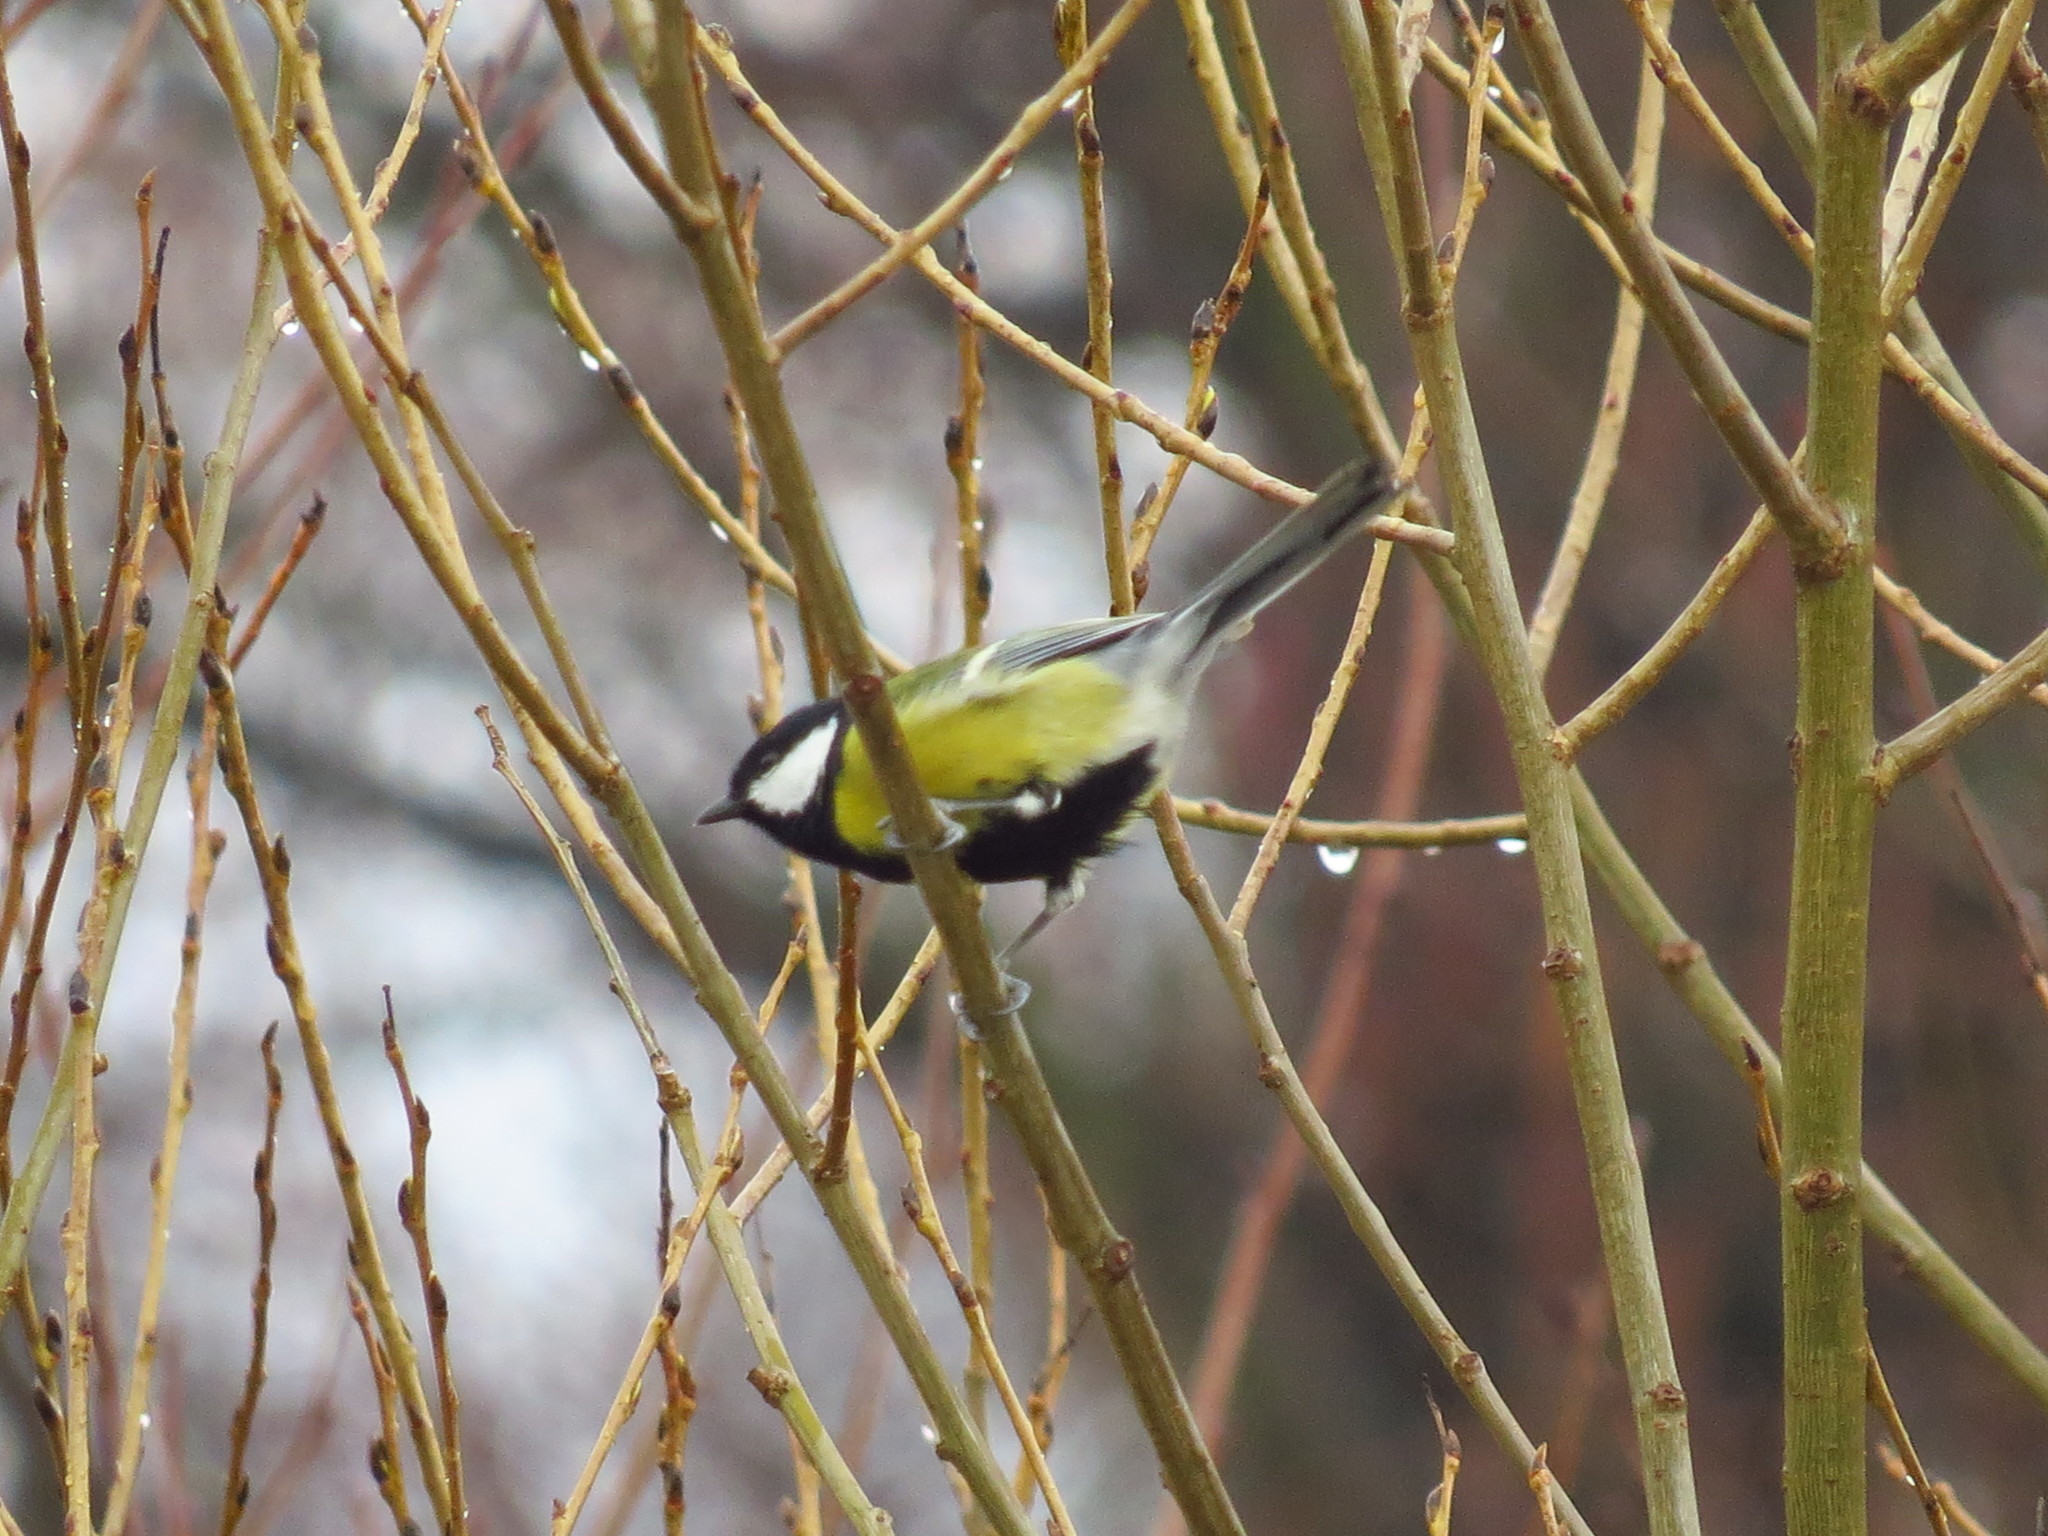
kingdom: Animalia
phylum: Chordata
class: Aves
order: Passeriformes
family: Paridae
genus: Parus
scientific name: Parus major
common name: Great tit
